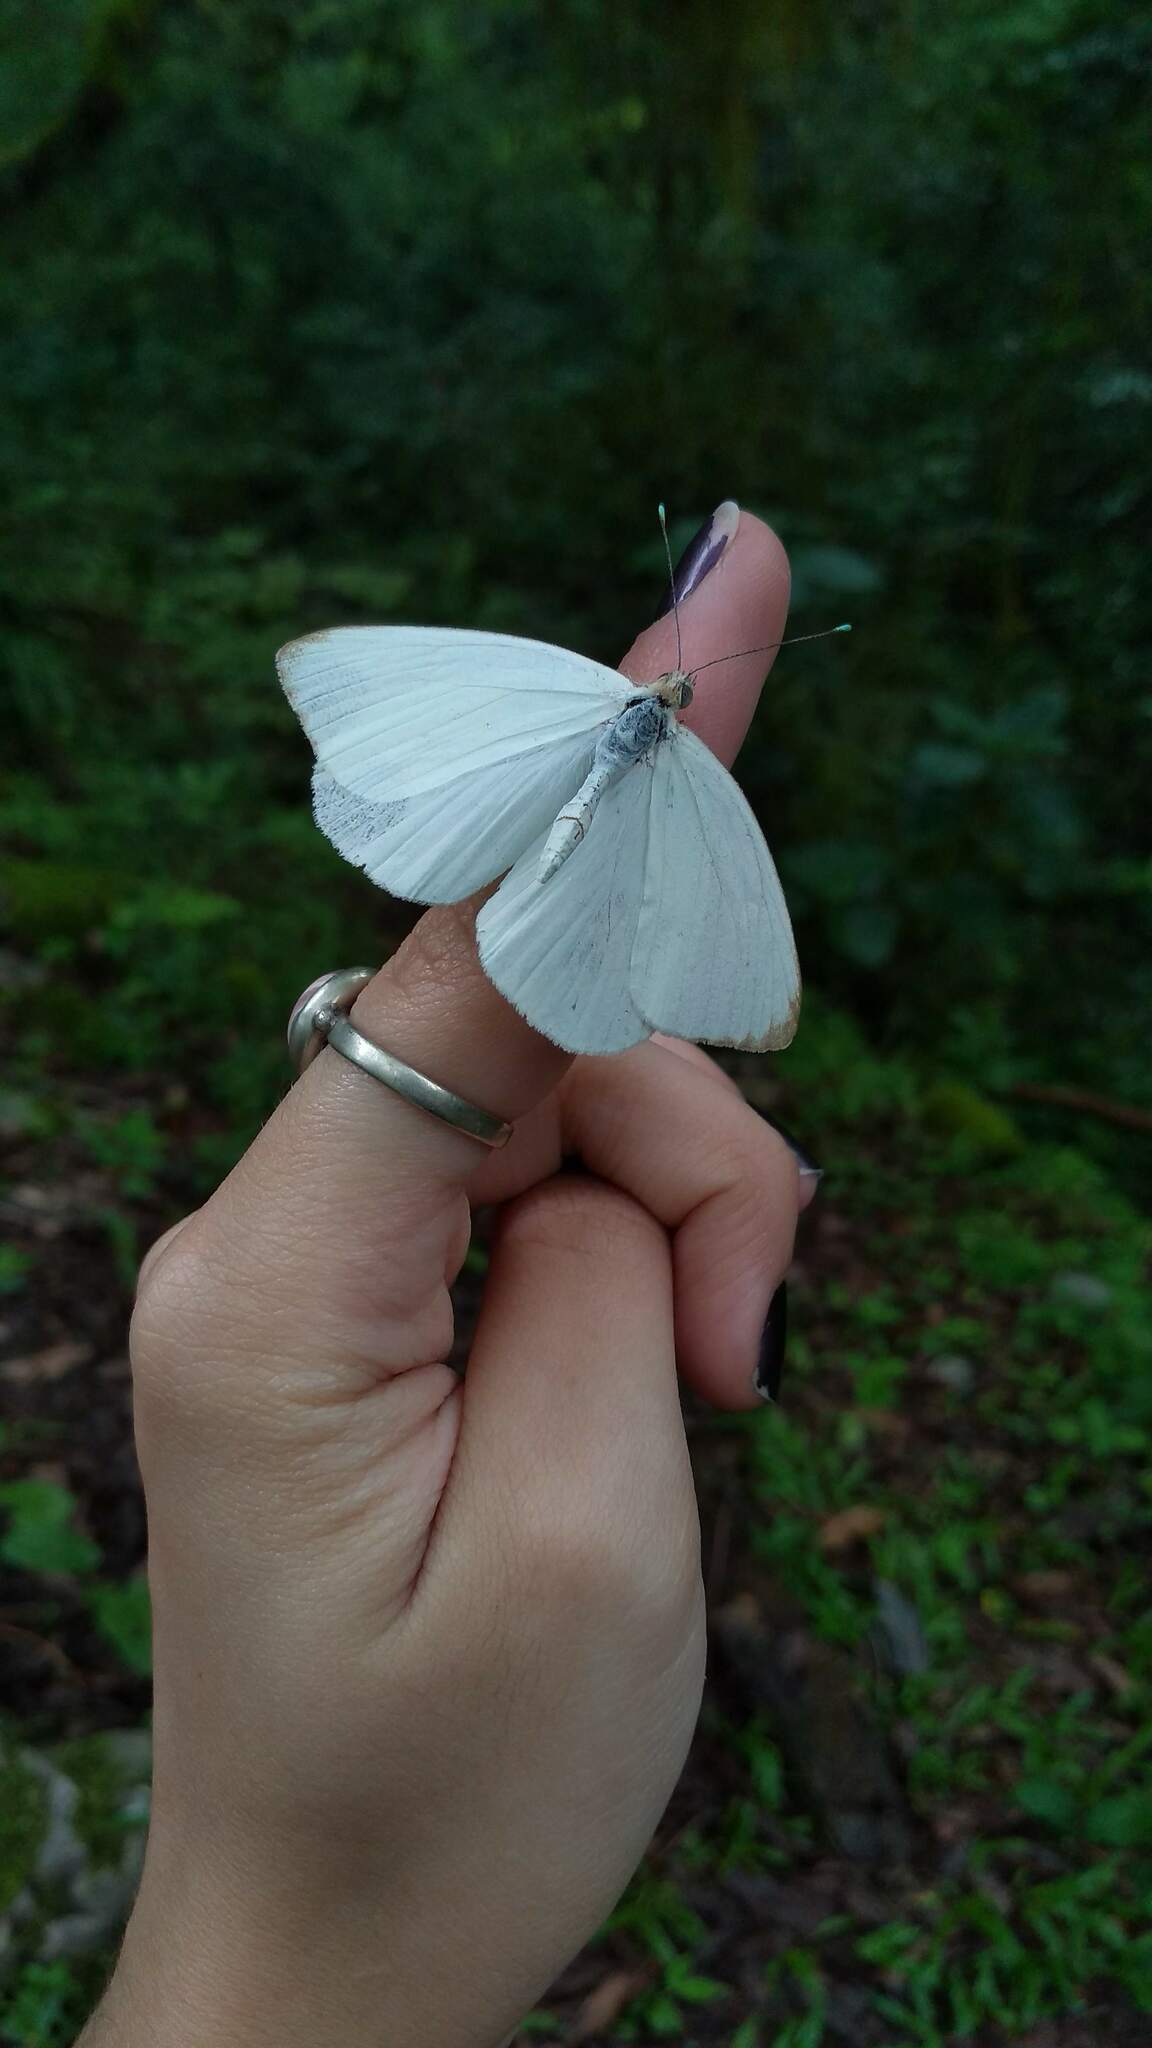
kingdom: Animalia
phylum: Arthropoda
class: Insecta
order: Lepidoptera
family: Pieridae
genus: Ascia
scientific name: Ascia monuste
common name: Great southern white
